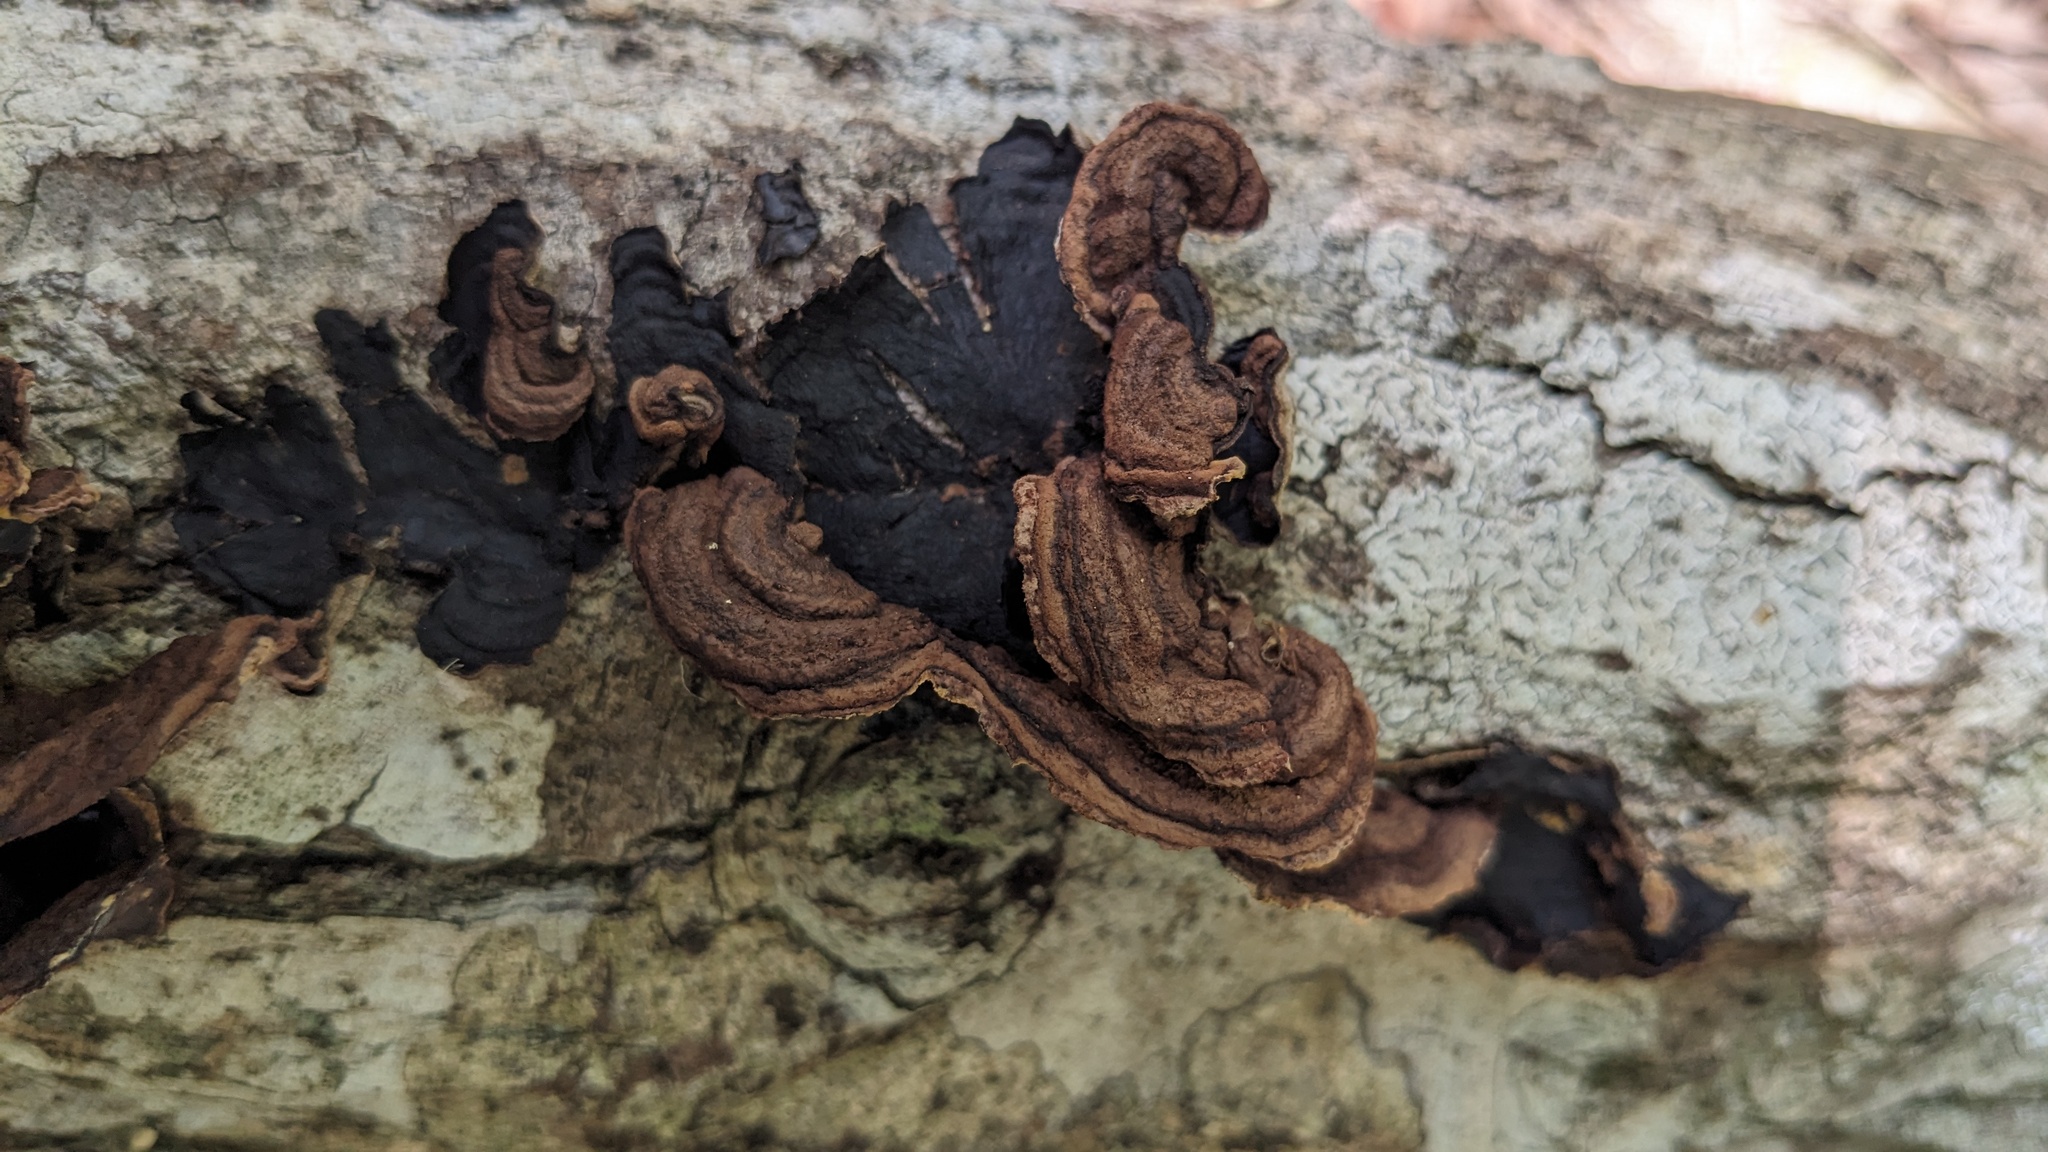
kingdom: Fungi
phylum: Basidiomycota
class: Agaricomycetes
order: Corticiales
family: Punctulariaceae
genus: Punctularia
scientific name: Punctularia strigosozonata
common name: White-rot fungus
